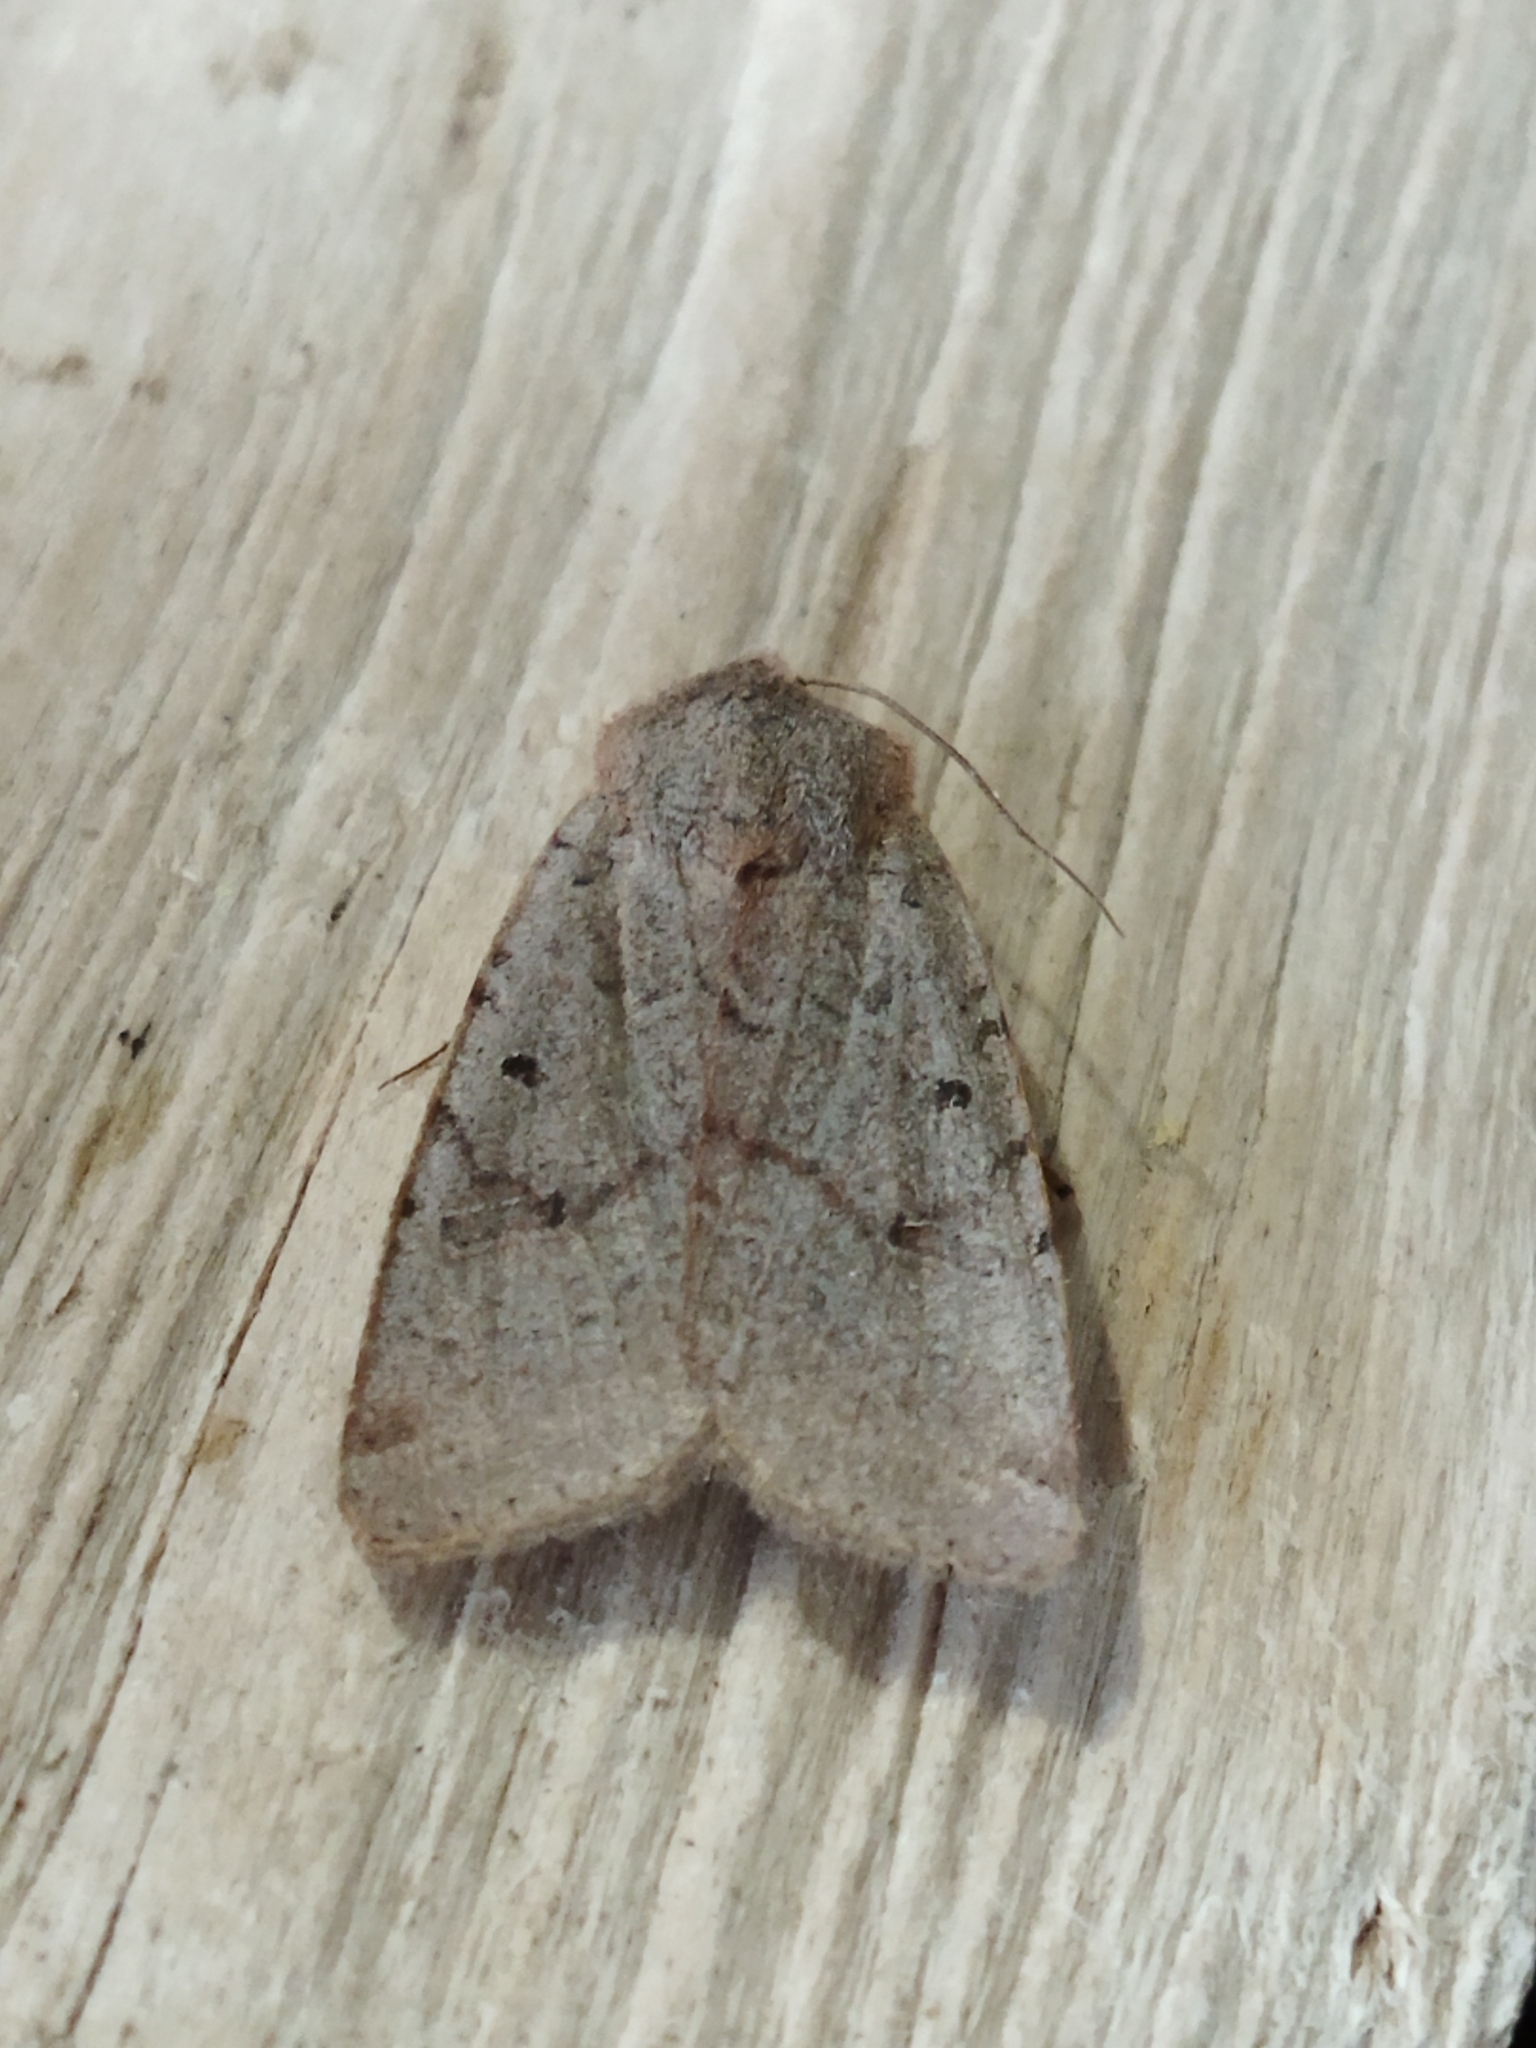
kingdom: Animalia
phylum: Arthropoda
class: Insecta
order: Lepidoptera
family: Noctuidae
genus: Agrochola
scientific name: Agrochola lychnidis
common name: Beaded chestnut
